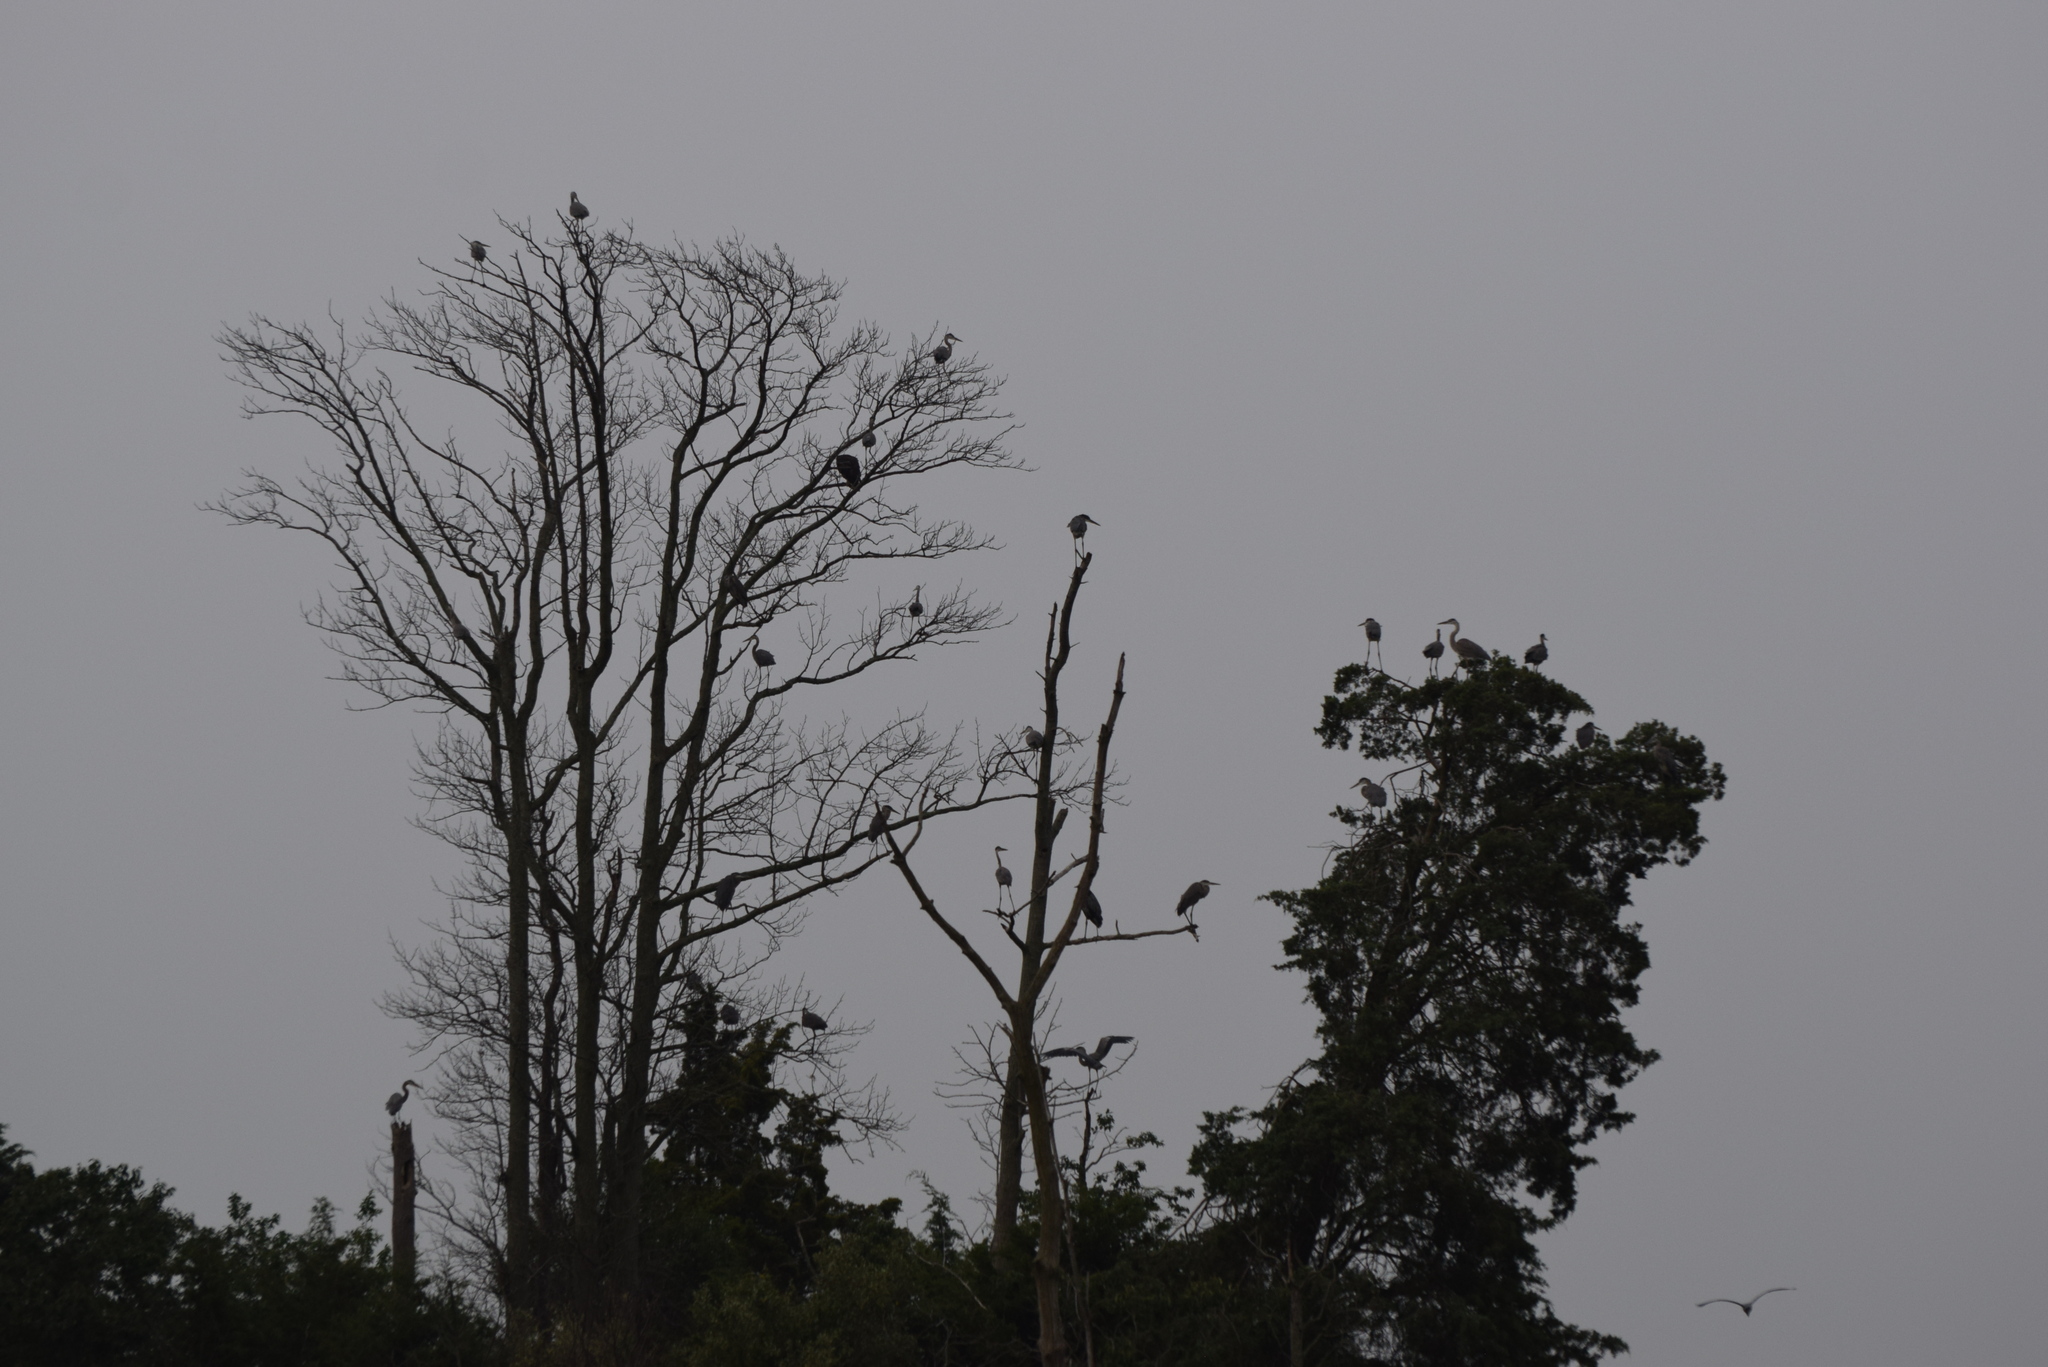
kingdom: Animalia
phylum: Chordata
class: Aves
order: Pelecaniformes
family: Ardeidae
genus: Ardea
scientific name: Ardea herodias
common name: Great blue heron
